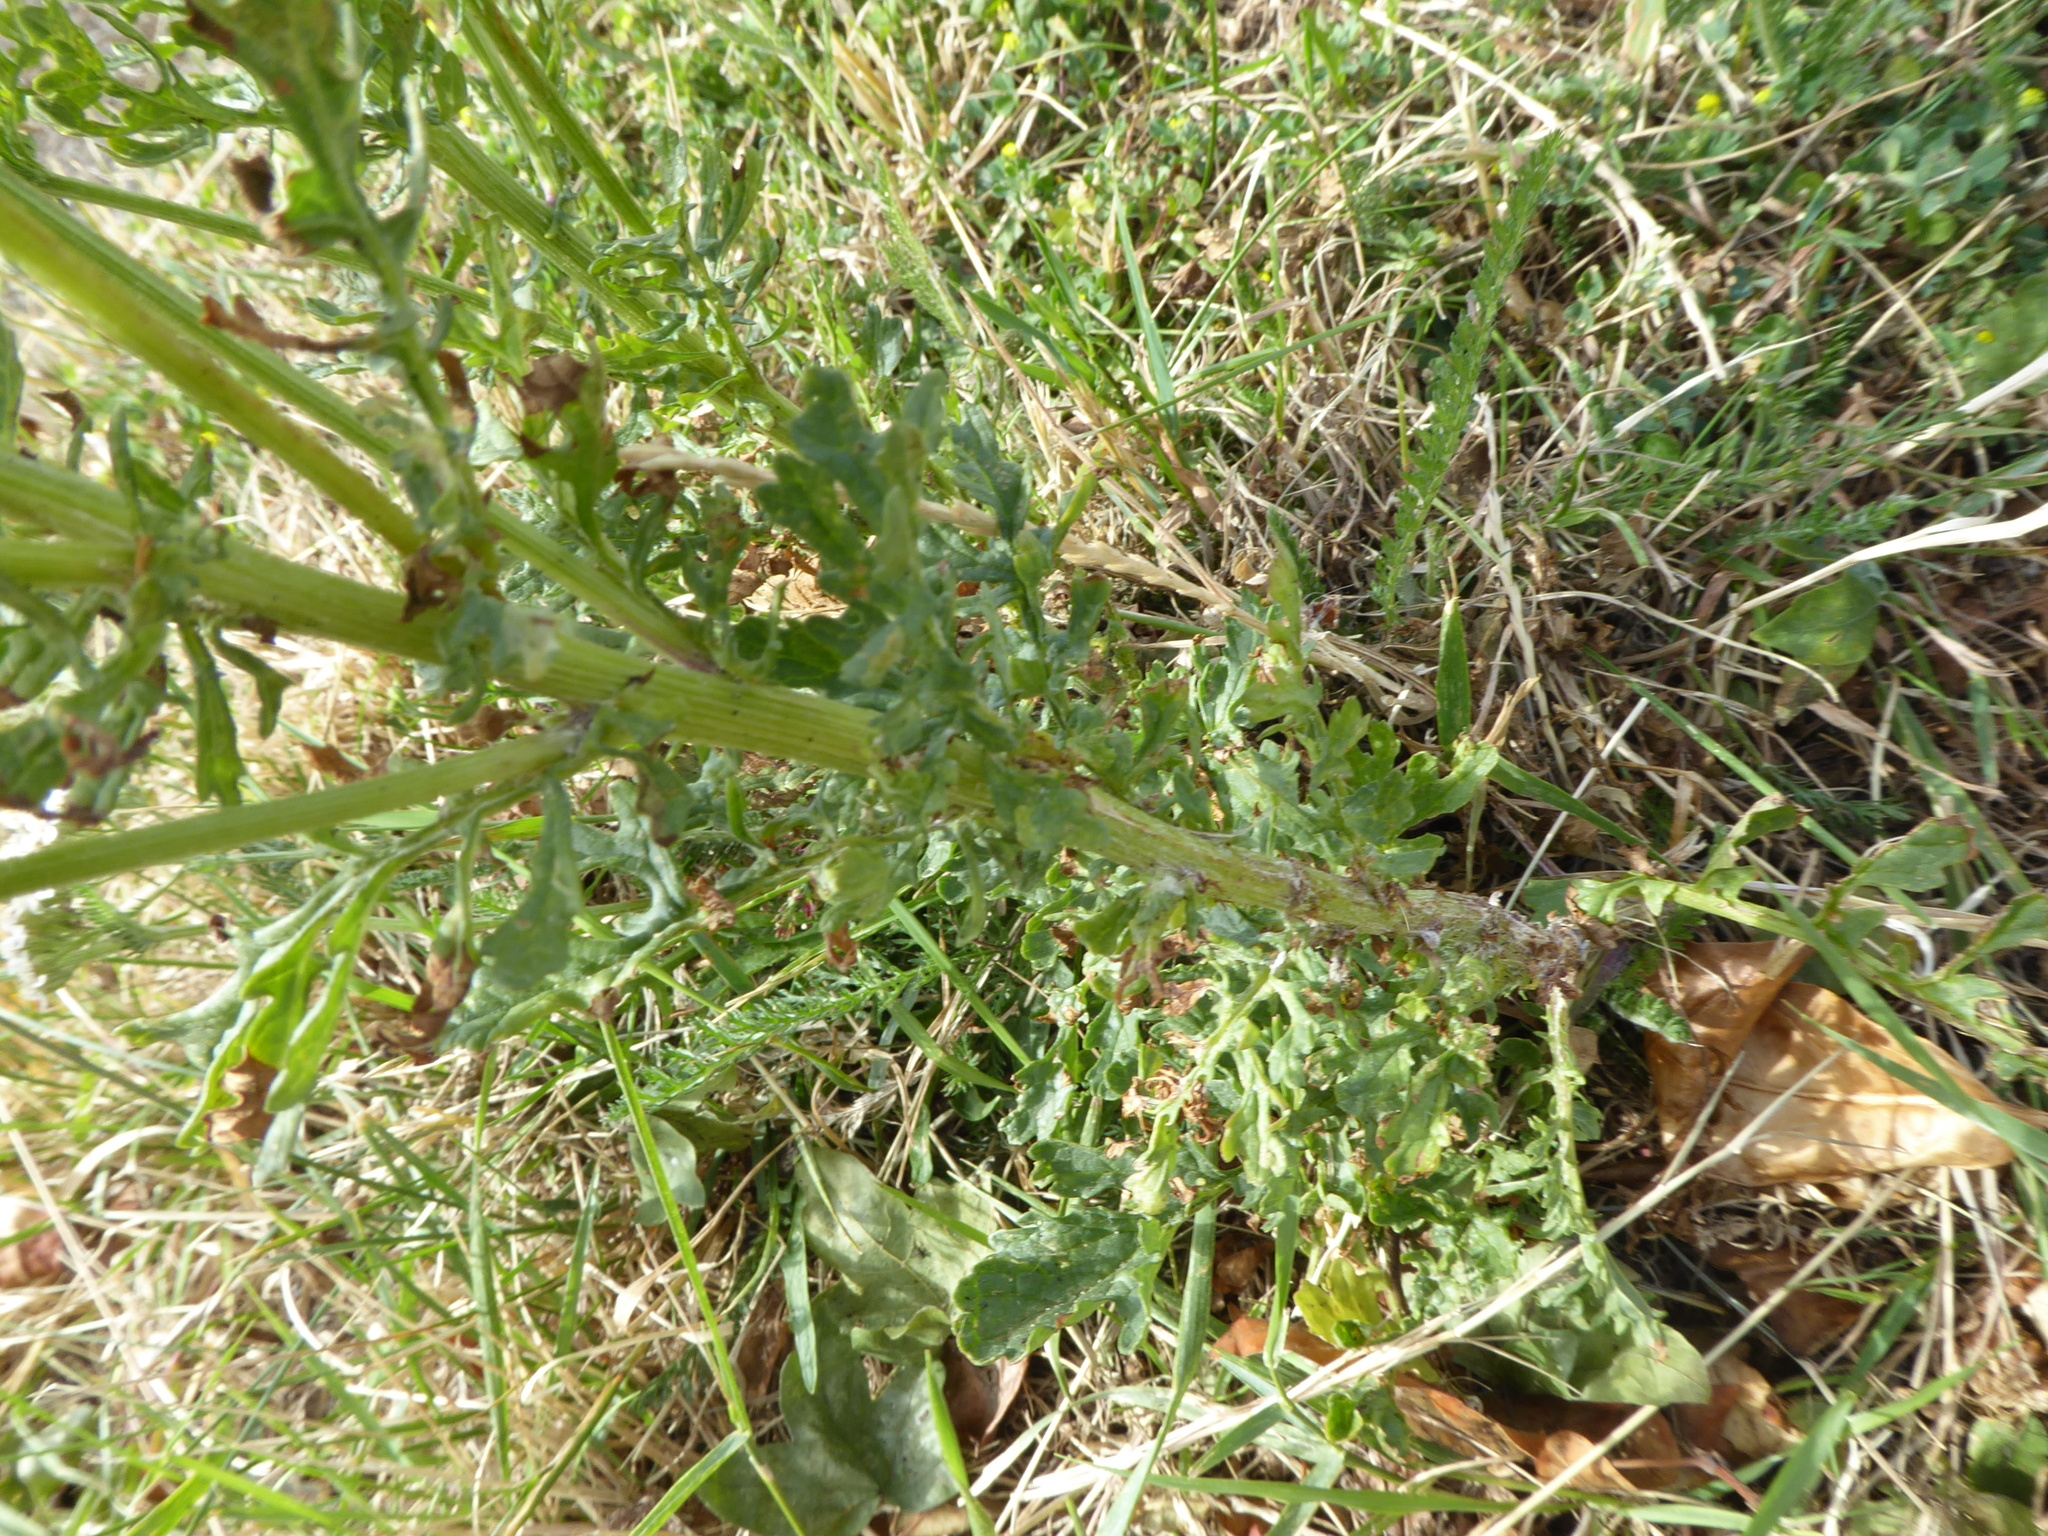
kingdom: Plantae
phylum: Tracheophyta
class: Magnoliopsida
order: Asterales
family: Asteraceae
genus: Jacobaea
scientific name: Jacobaea vulgaris
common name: Stinking willie
